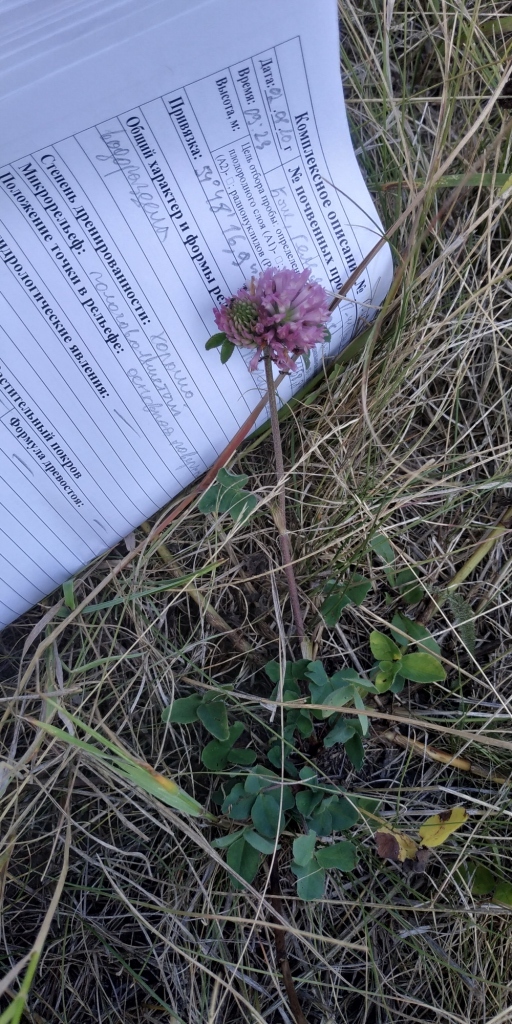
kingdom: Plantae
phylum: Tracheophyta
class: Magnoliopsida
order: Fabales
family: Fabaceae
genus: Trifolium
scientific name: Trifolium pratense
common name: Red clover
